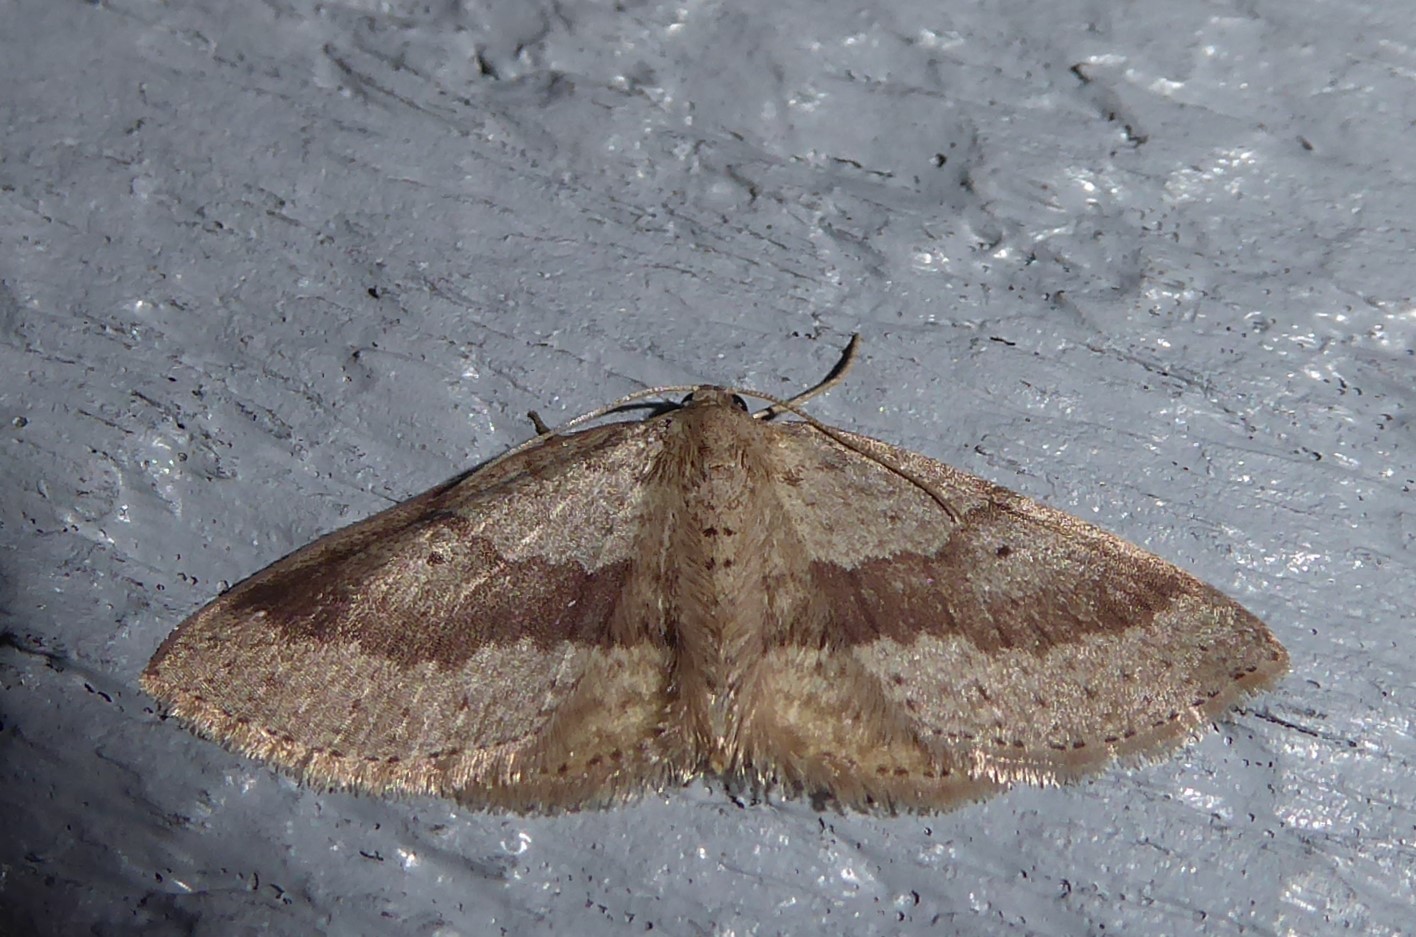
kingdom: Animalia
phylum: Arthropoda
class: Insecta
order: Lepidoptera
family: Geometridae
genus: Poecilasthena
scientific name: Poecilasthena schistaria
